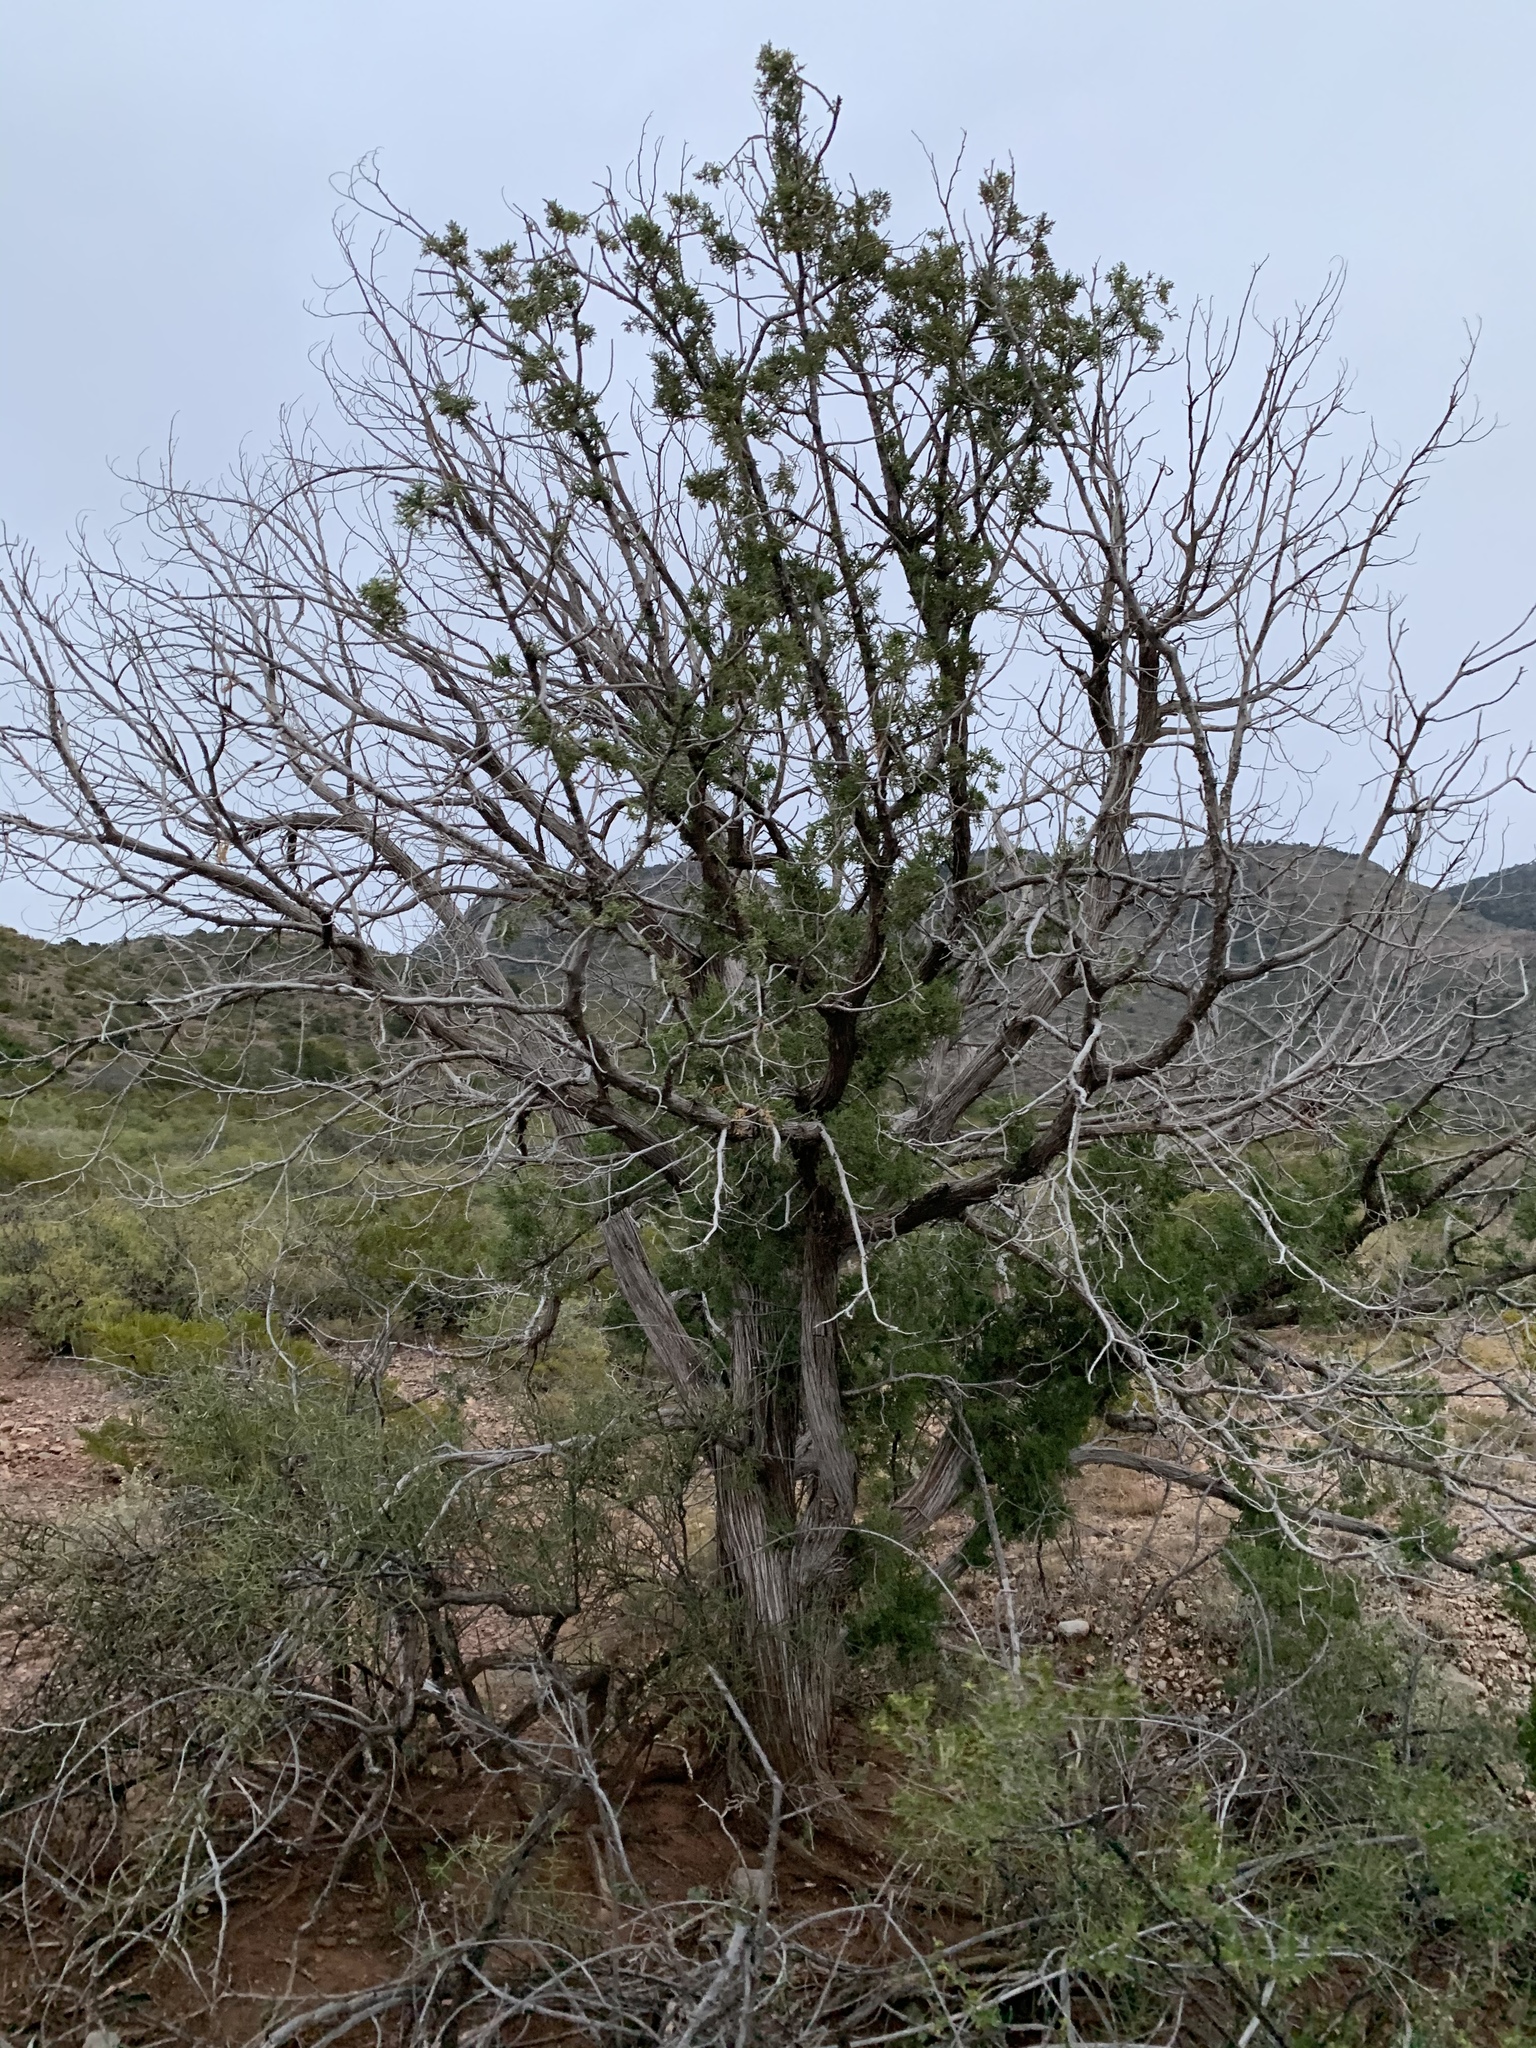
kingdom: Plantae
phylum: Tracheophyta
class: Pinopsida
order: Pinales
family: Cupressaceae
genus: Juniperus
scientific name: Juniperus monosperma
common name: One-seed juniper
